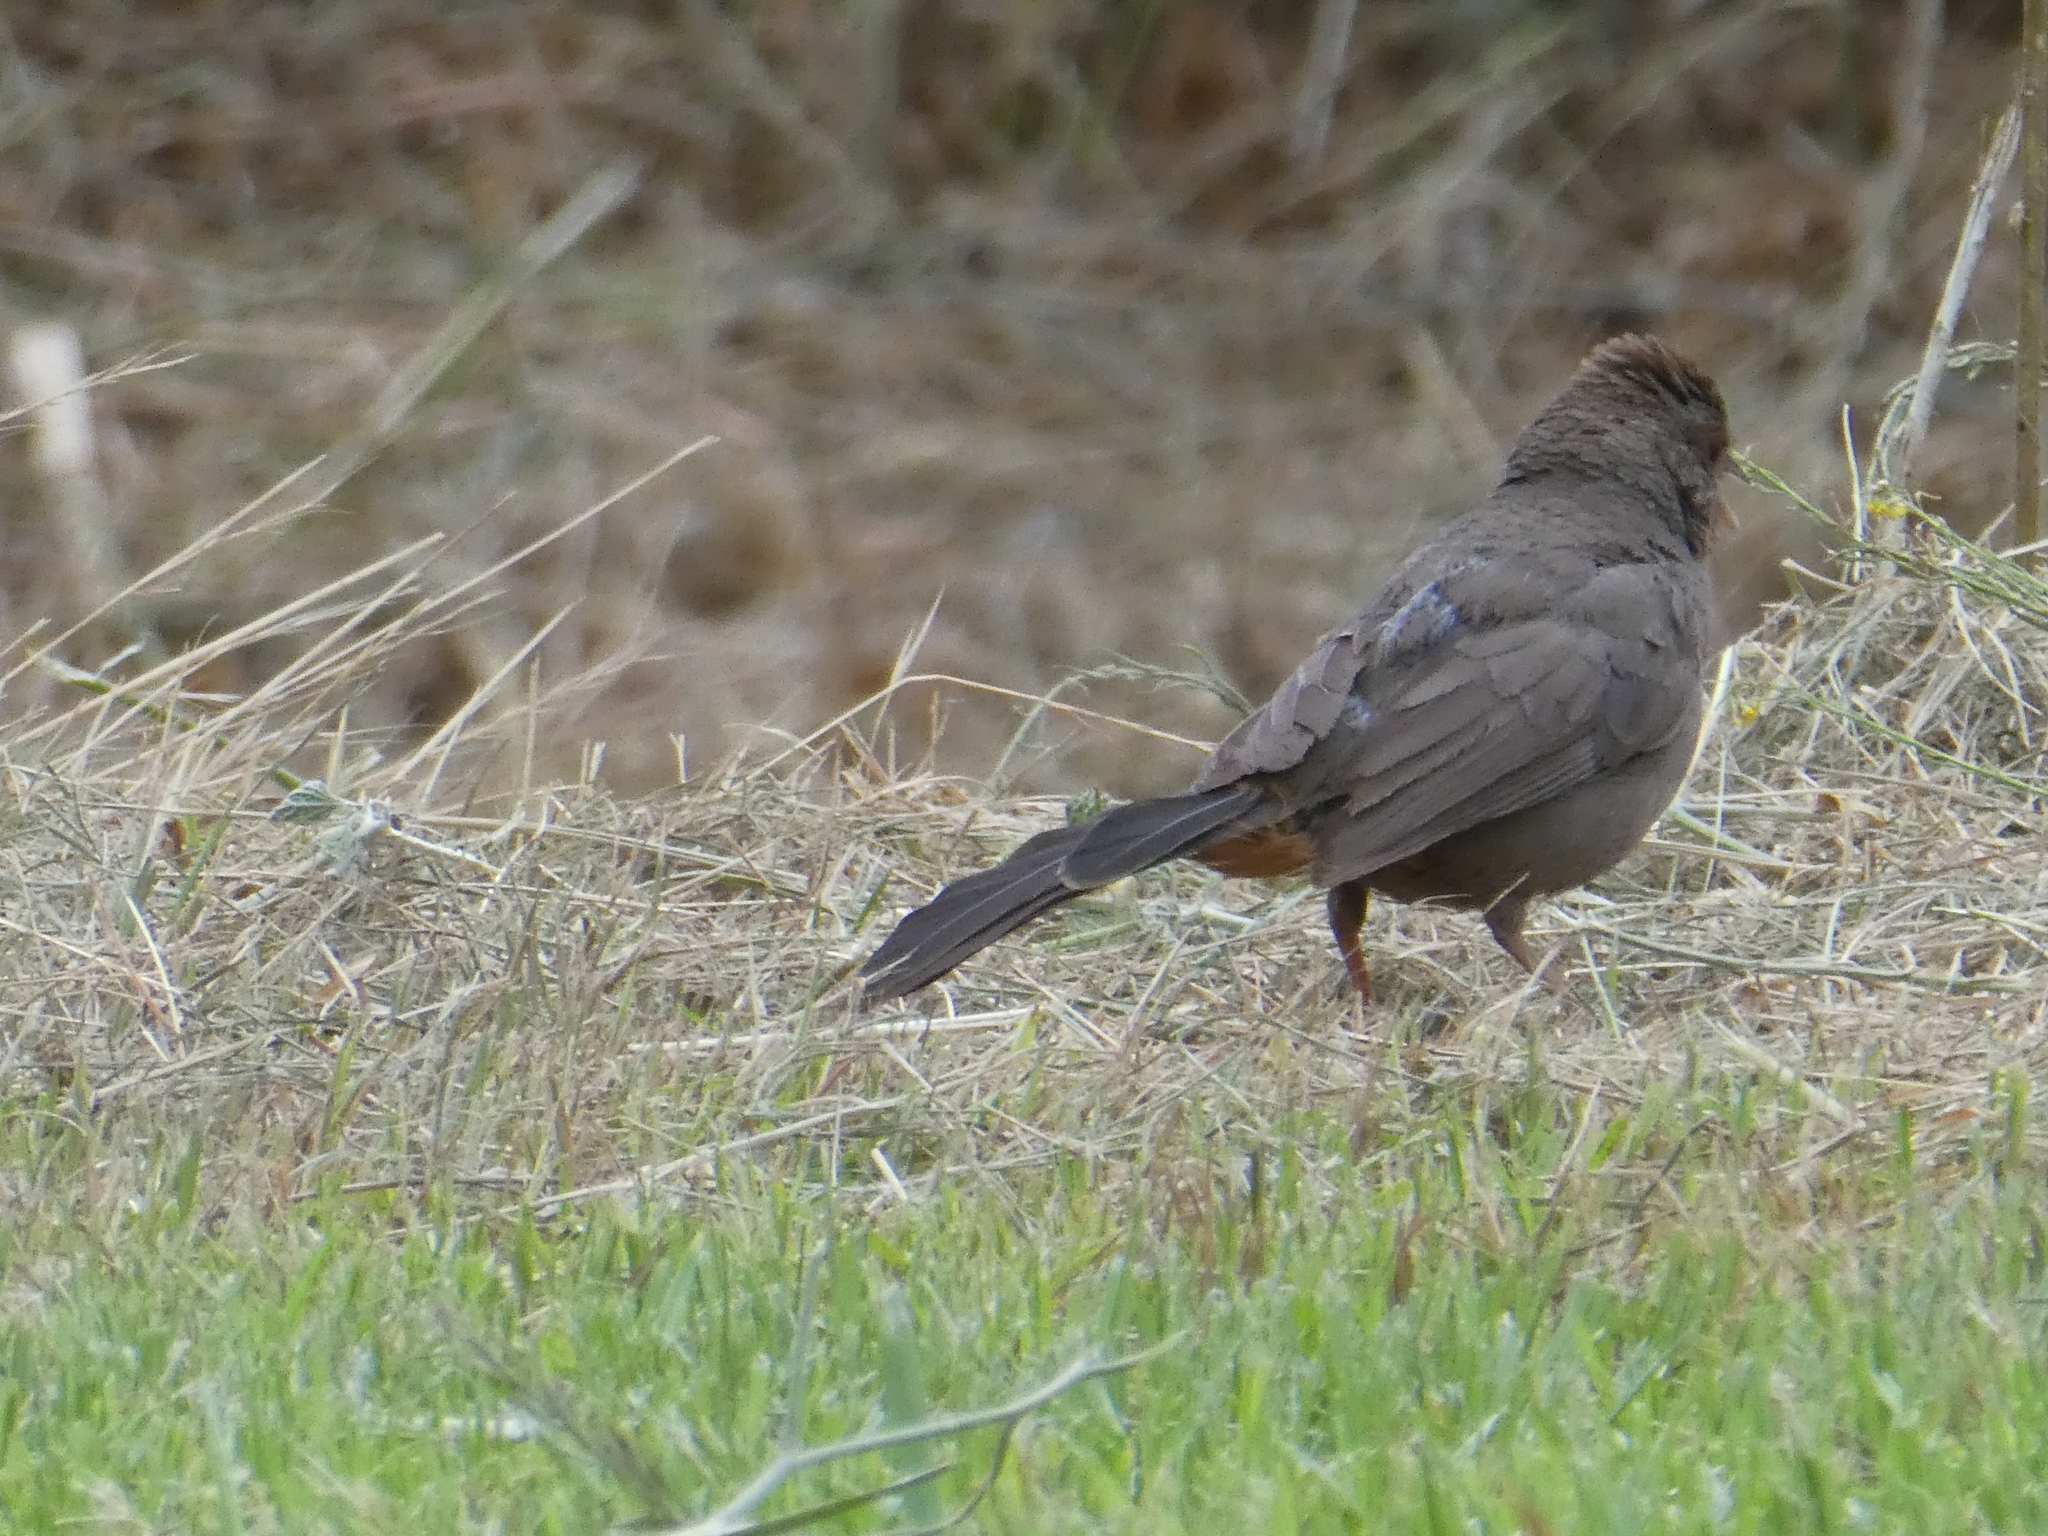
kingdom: Animalia
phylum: Chordata
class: Aves
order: Passeriformes
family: Passerellidae
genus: Melozone
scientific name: Melozone crissalis
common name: California towhee
